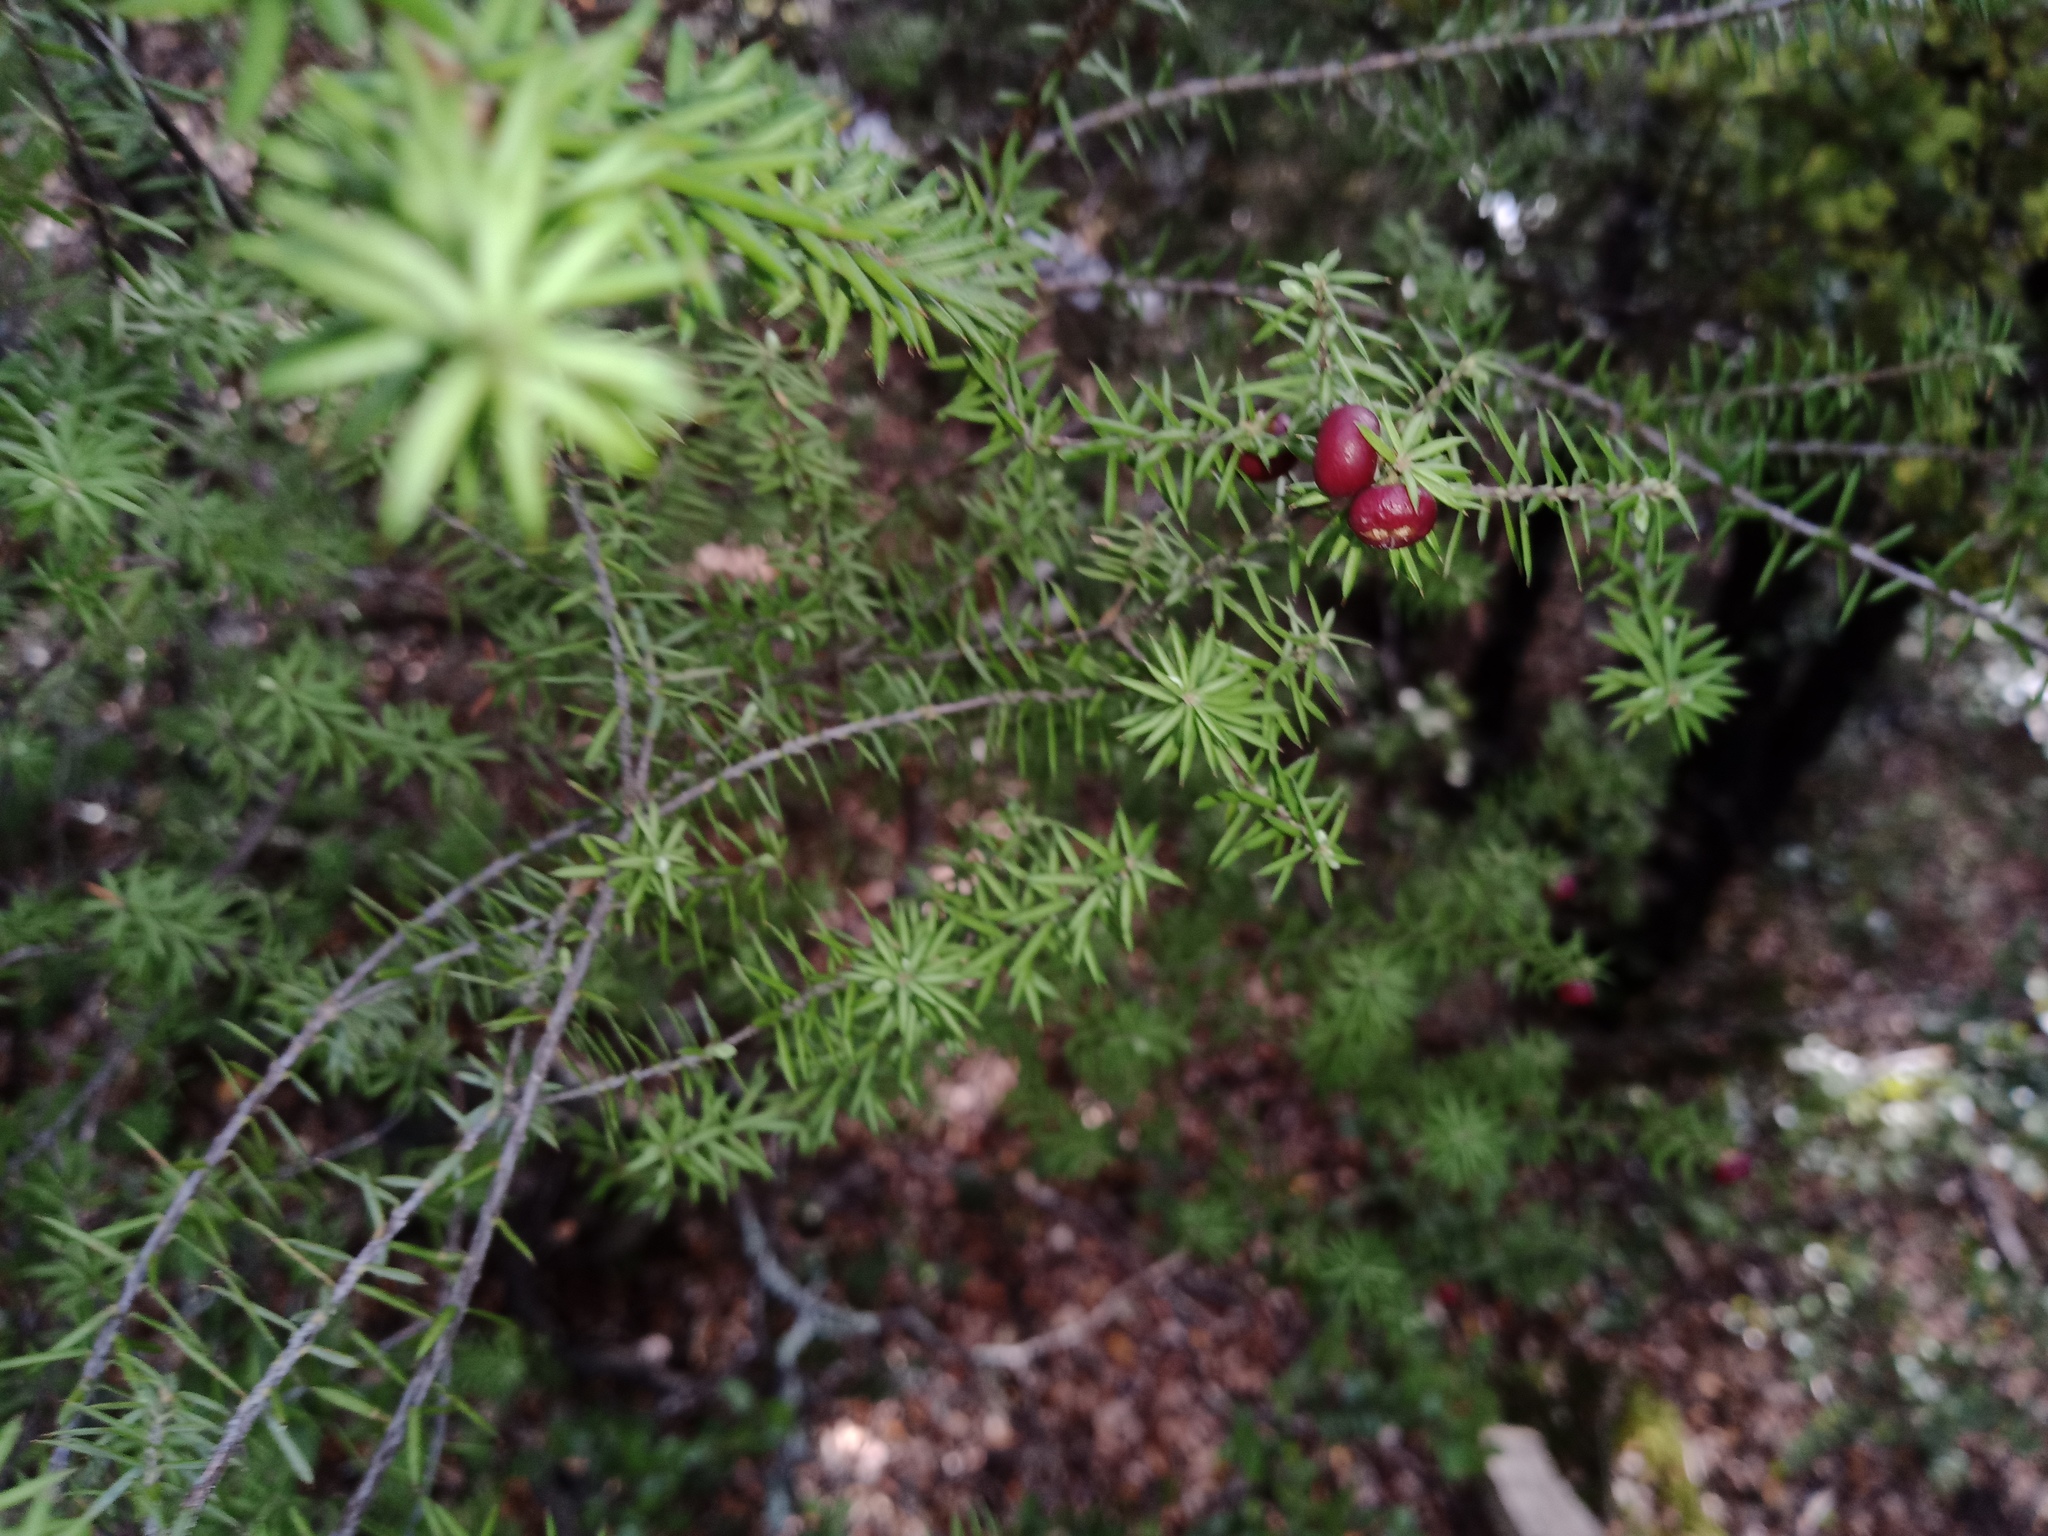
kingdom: Plantae
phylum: Tracheophyta
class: Magnoliopsida
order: Ericales
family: Ericaceae
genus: Leptecophylla
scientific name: Leptecophylla juniperina
